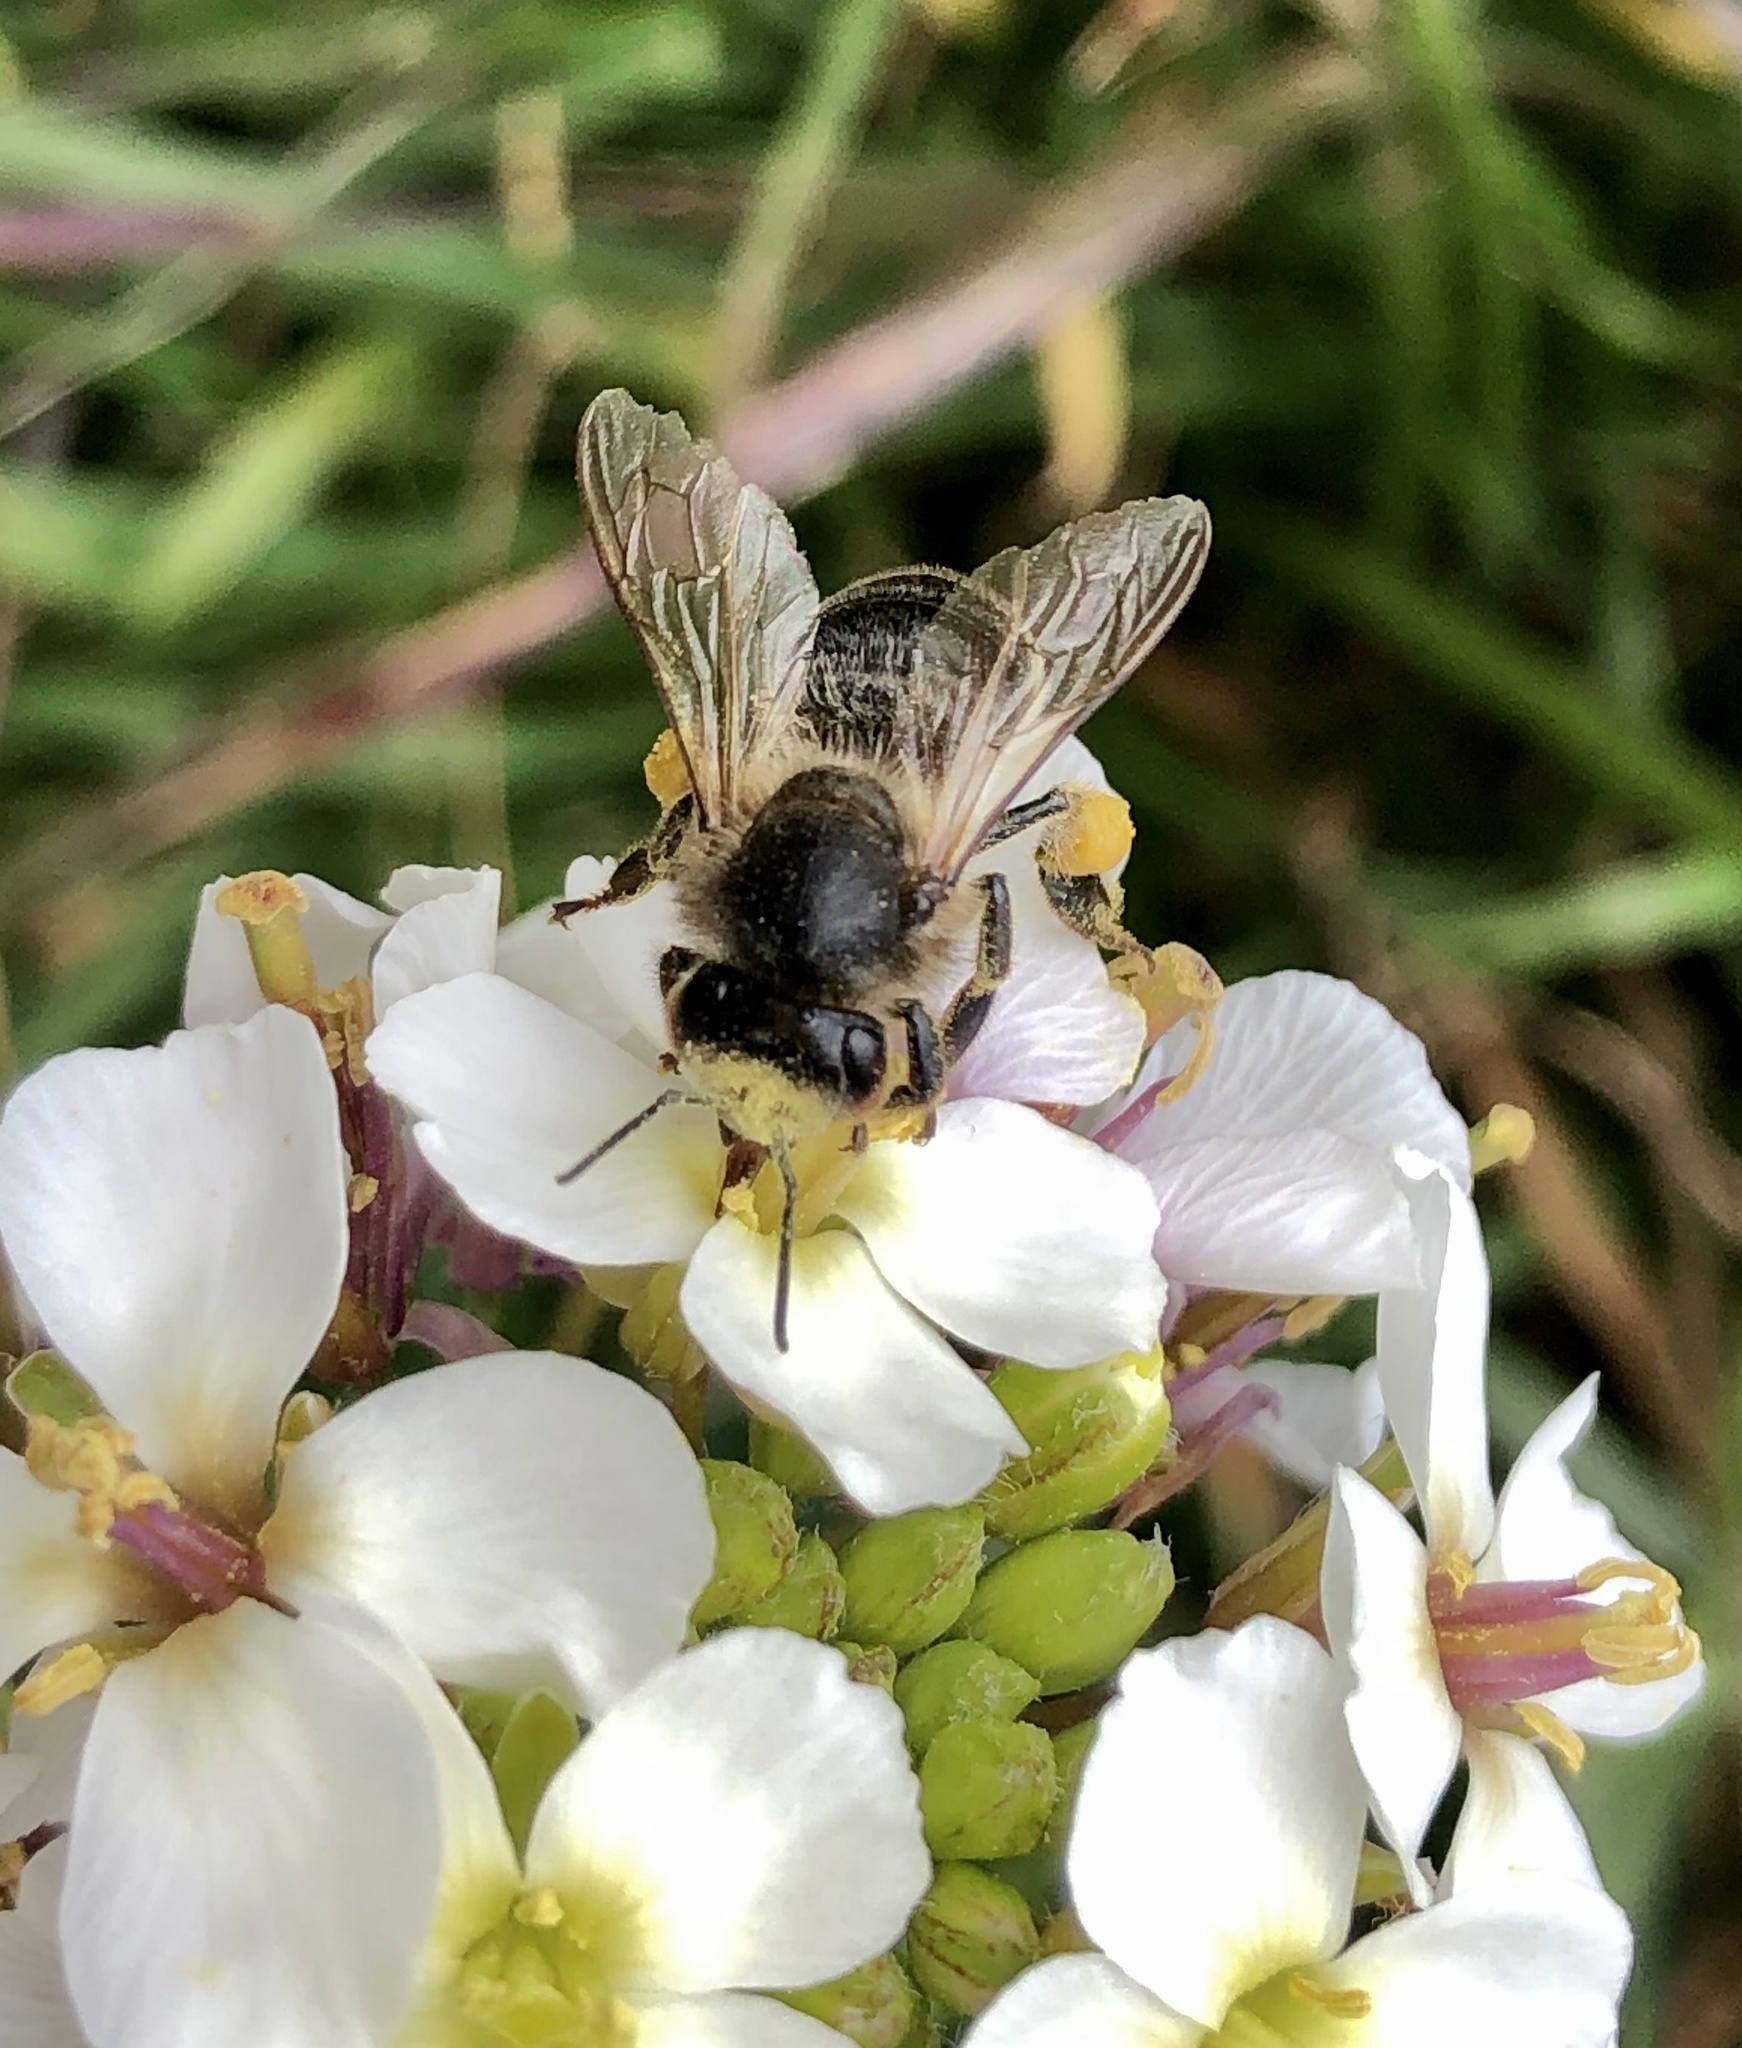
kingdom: Animalia
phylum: Arthropoda
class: Insecta
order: Hymenoptera
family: Apidae
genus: Apis
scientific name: Apis mellifera
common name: Honey bee
